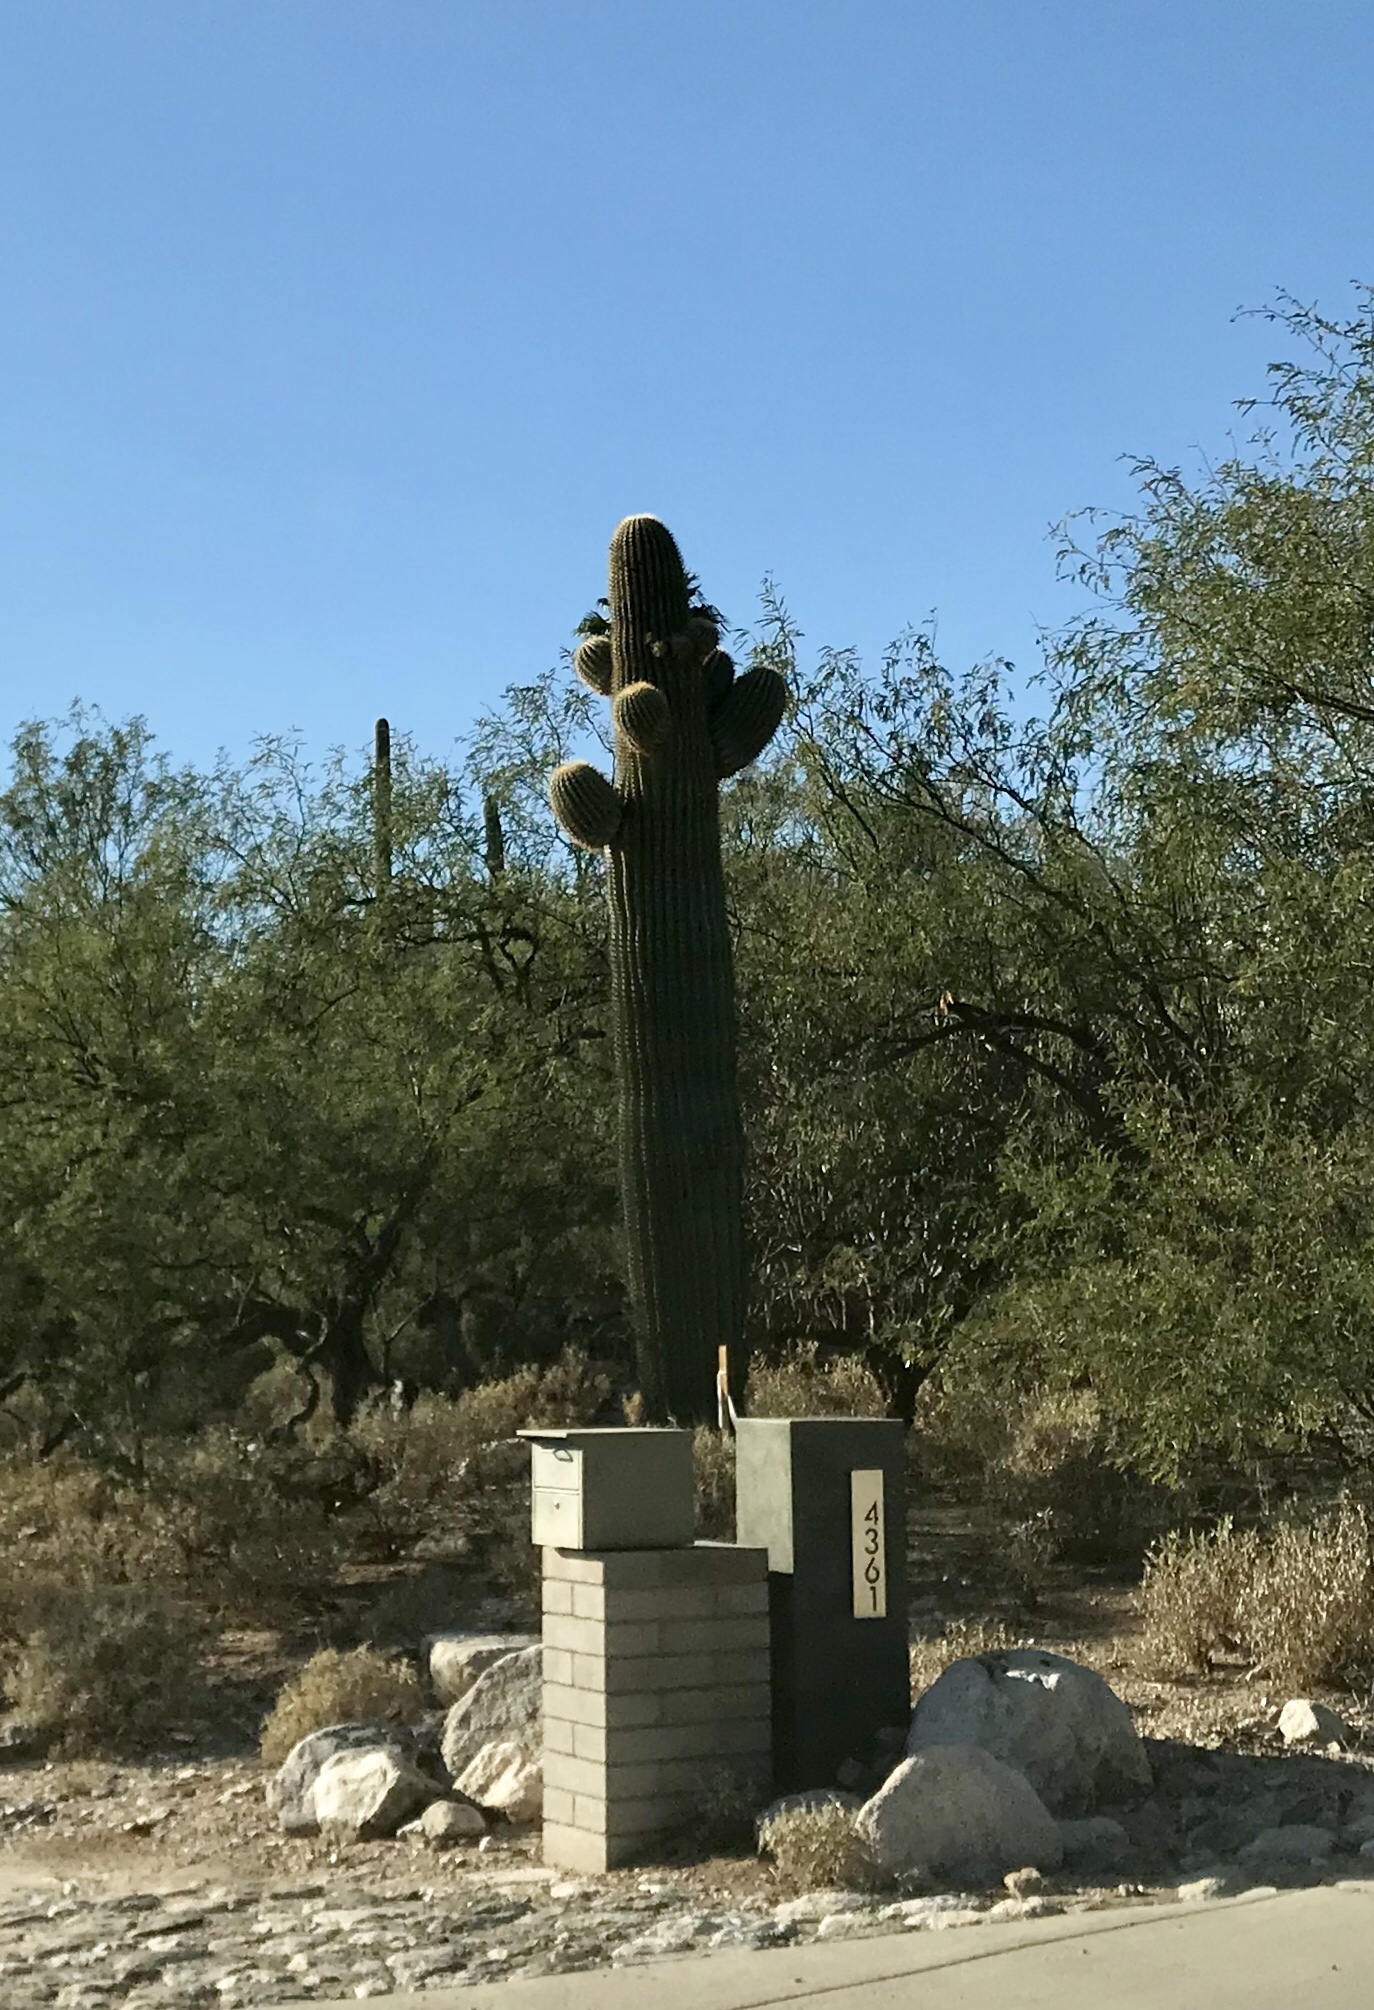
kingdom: Plantae
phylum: Tracheophyta
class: Magnoliopsida
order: Caryophyllales
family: Cactaceae
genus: Carnegiea
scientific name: Carnegiea gigantea
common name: Saguaro
